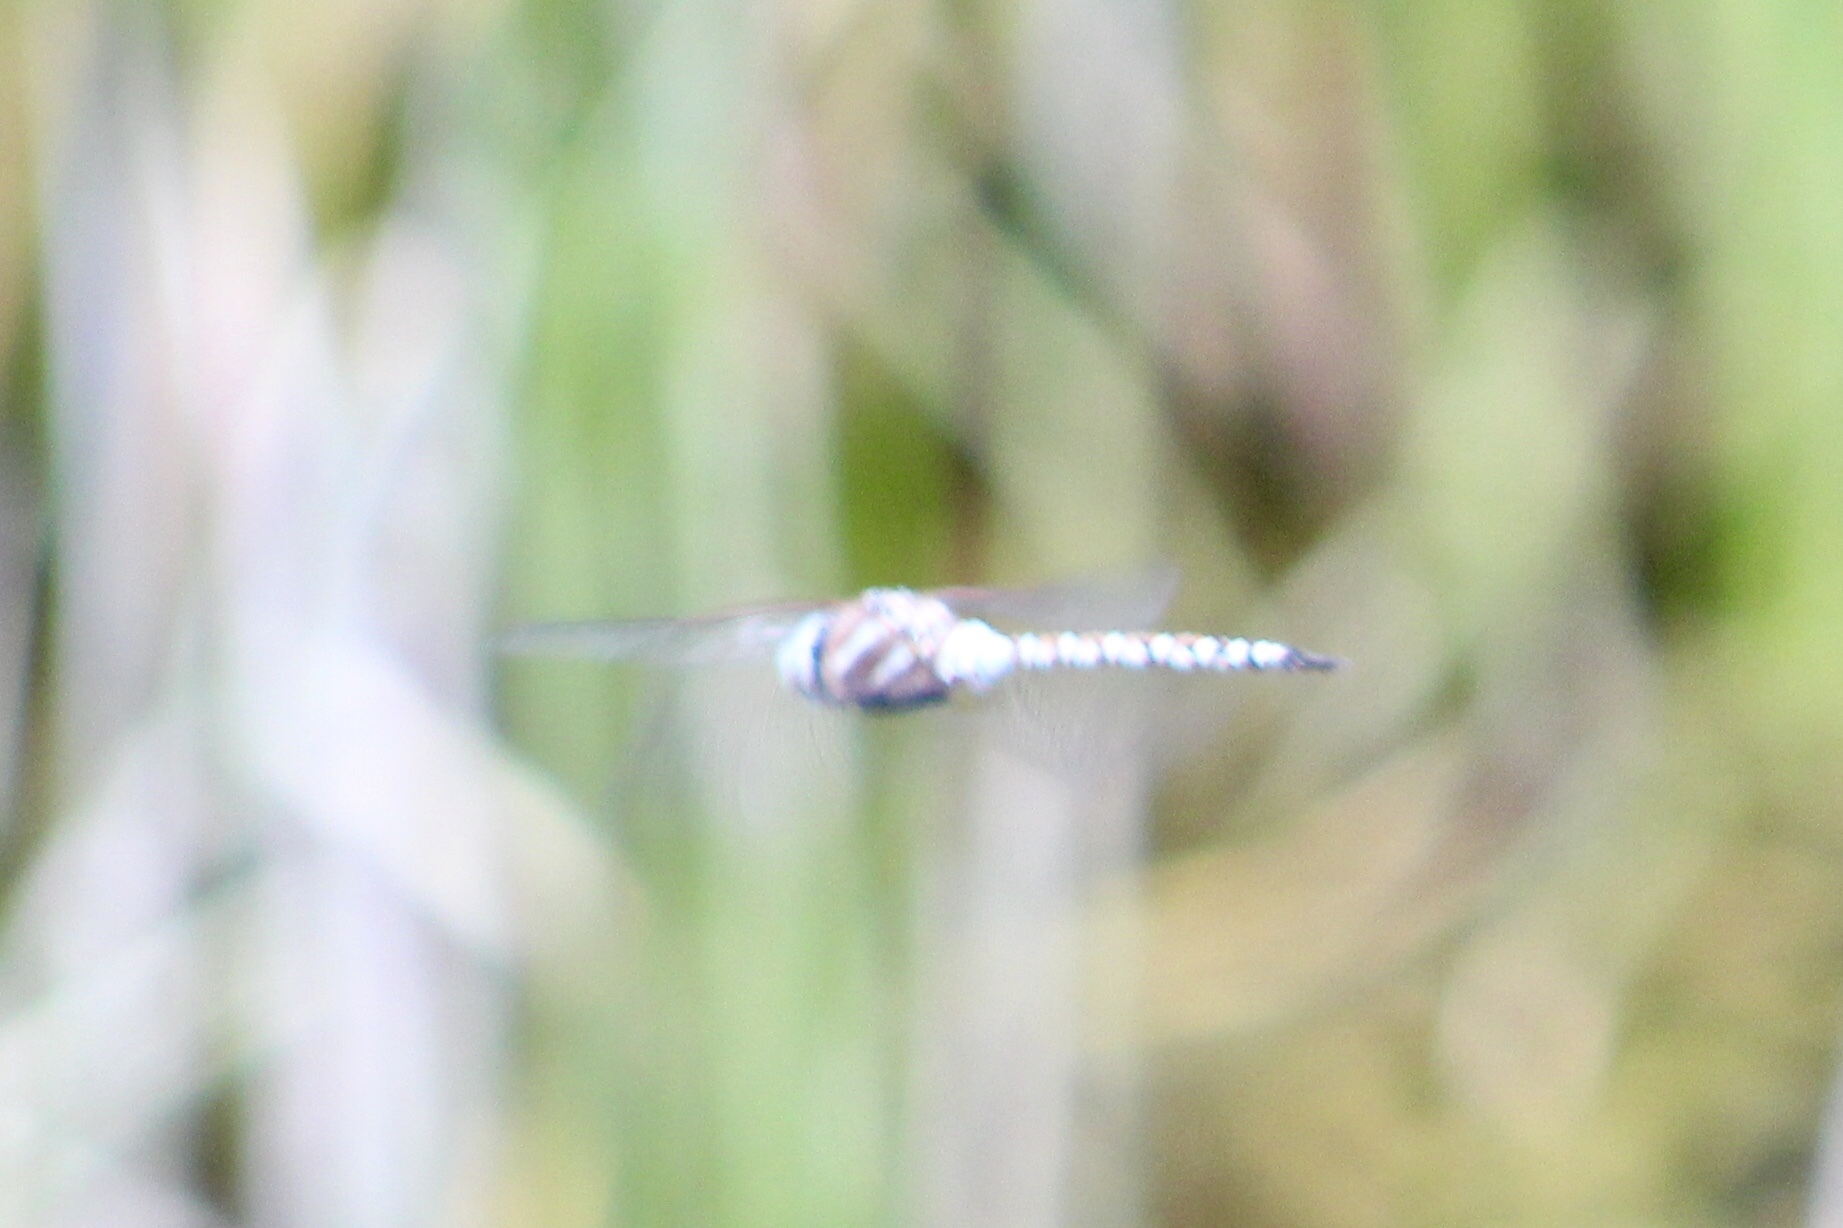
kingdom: Animalia
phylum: Arthropoda
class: Insecta
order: Odonata
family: Aeshnidae
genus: Rhionaeschna
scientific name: Rhionaeschna multicolor
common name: Blue-eyed darner
